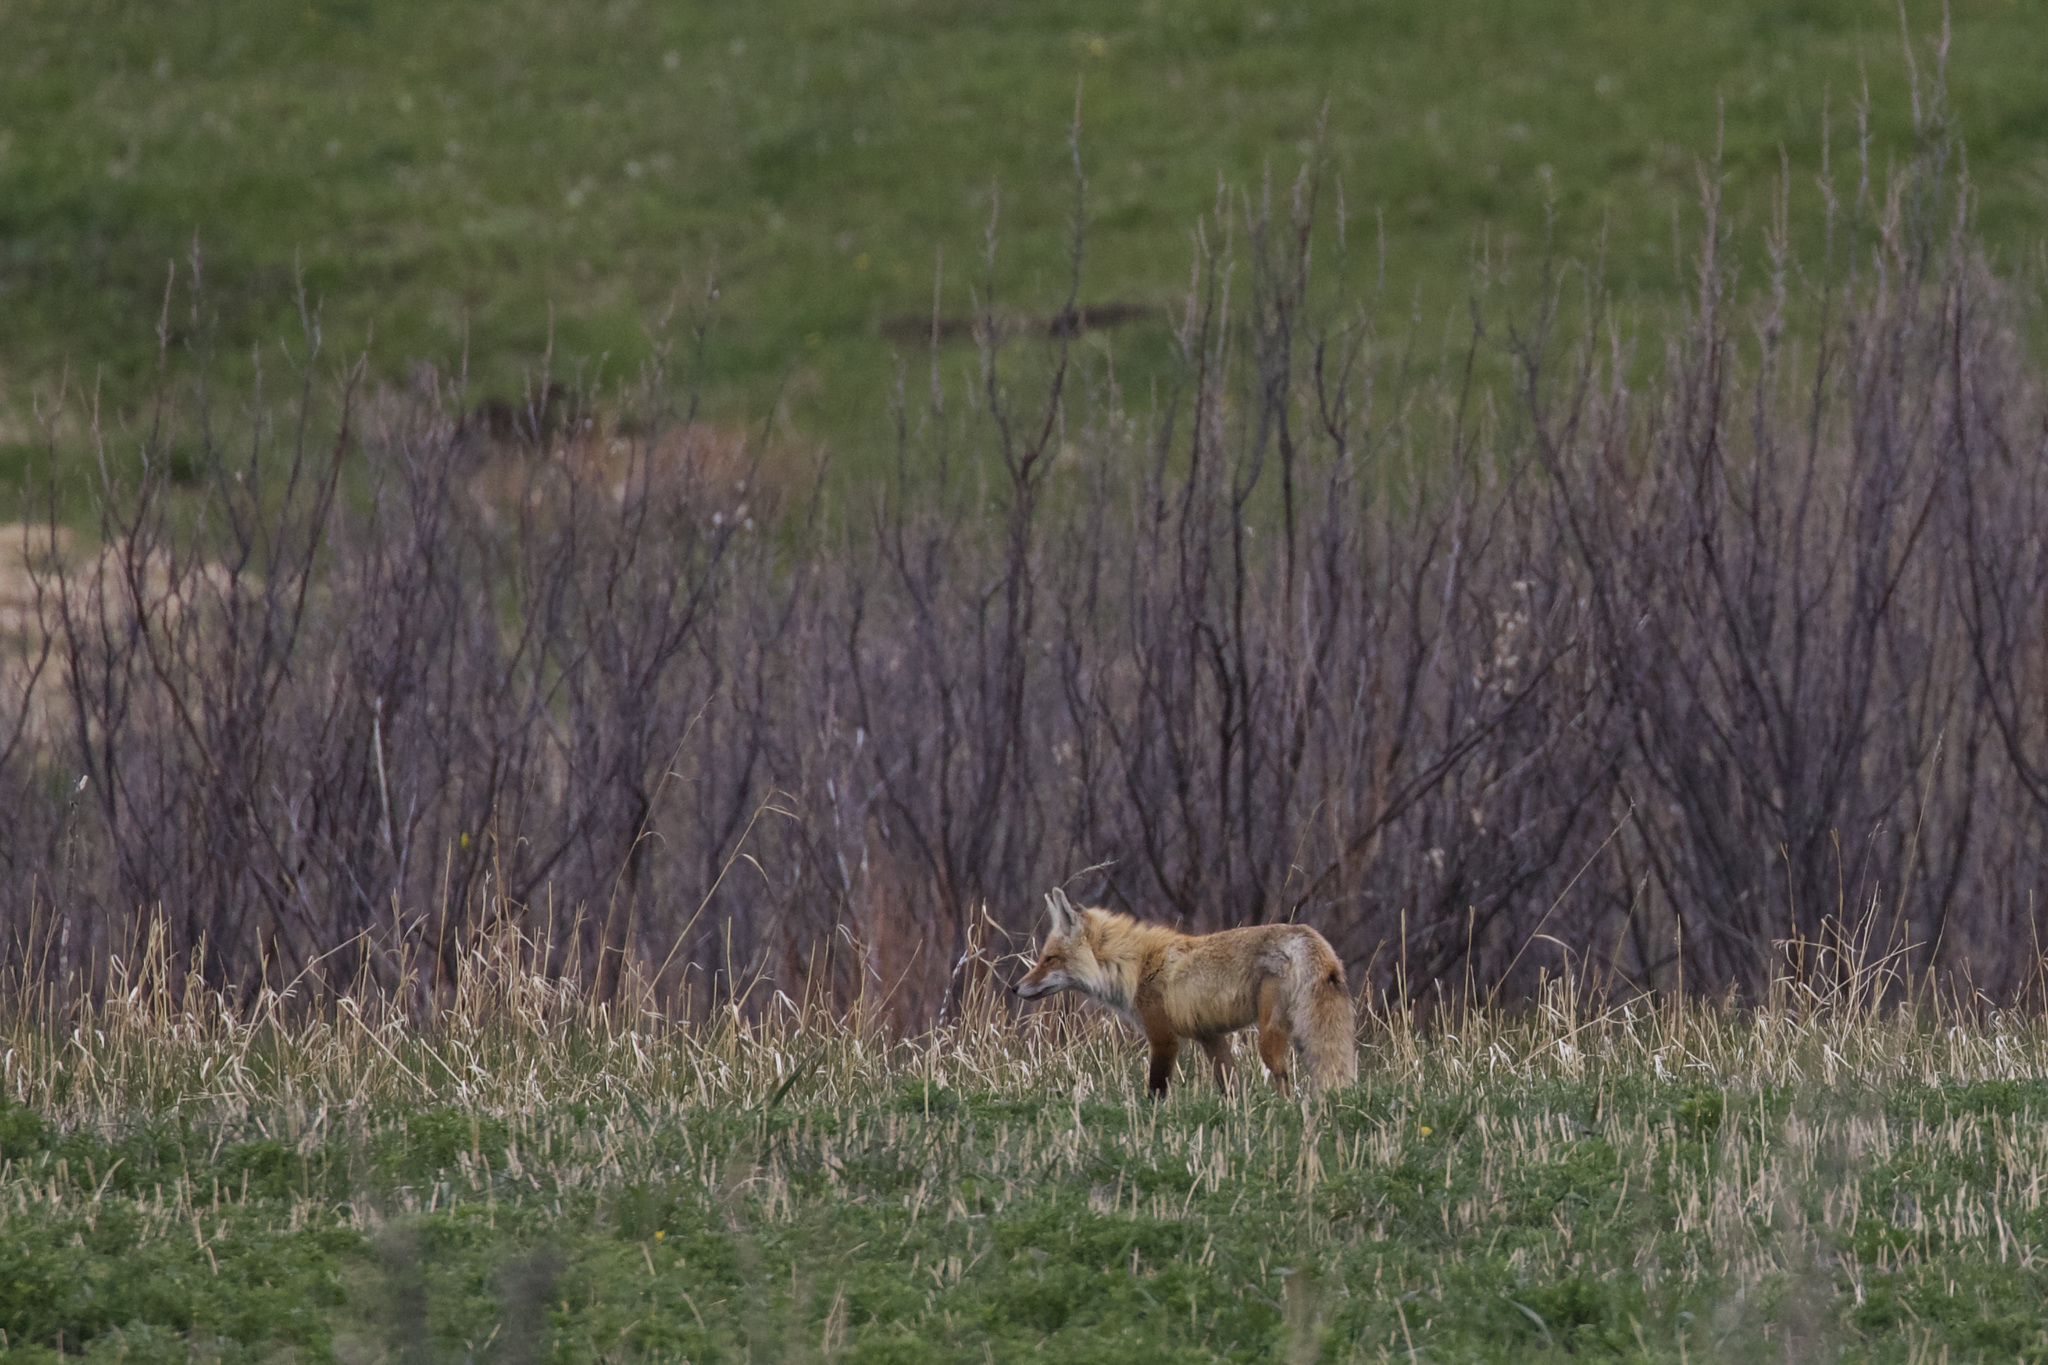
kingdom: Animalia
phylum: Chordata
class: Mammalia
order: Carnivora
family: Canidae
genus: Vulpes
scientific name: Vulpes vulpes
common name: Red fox
